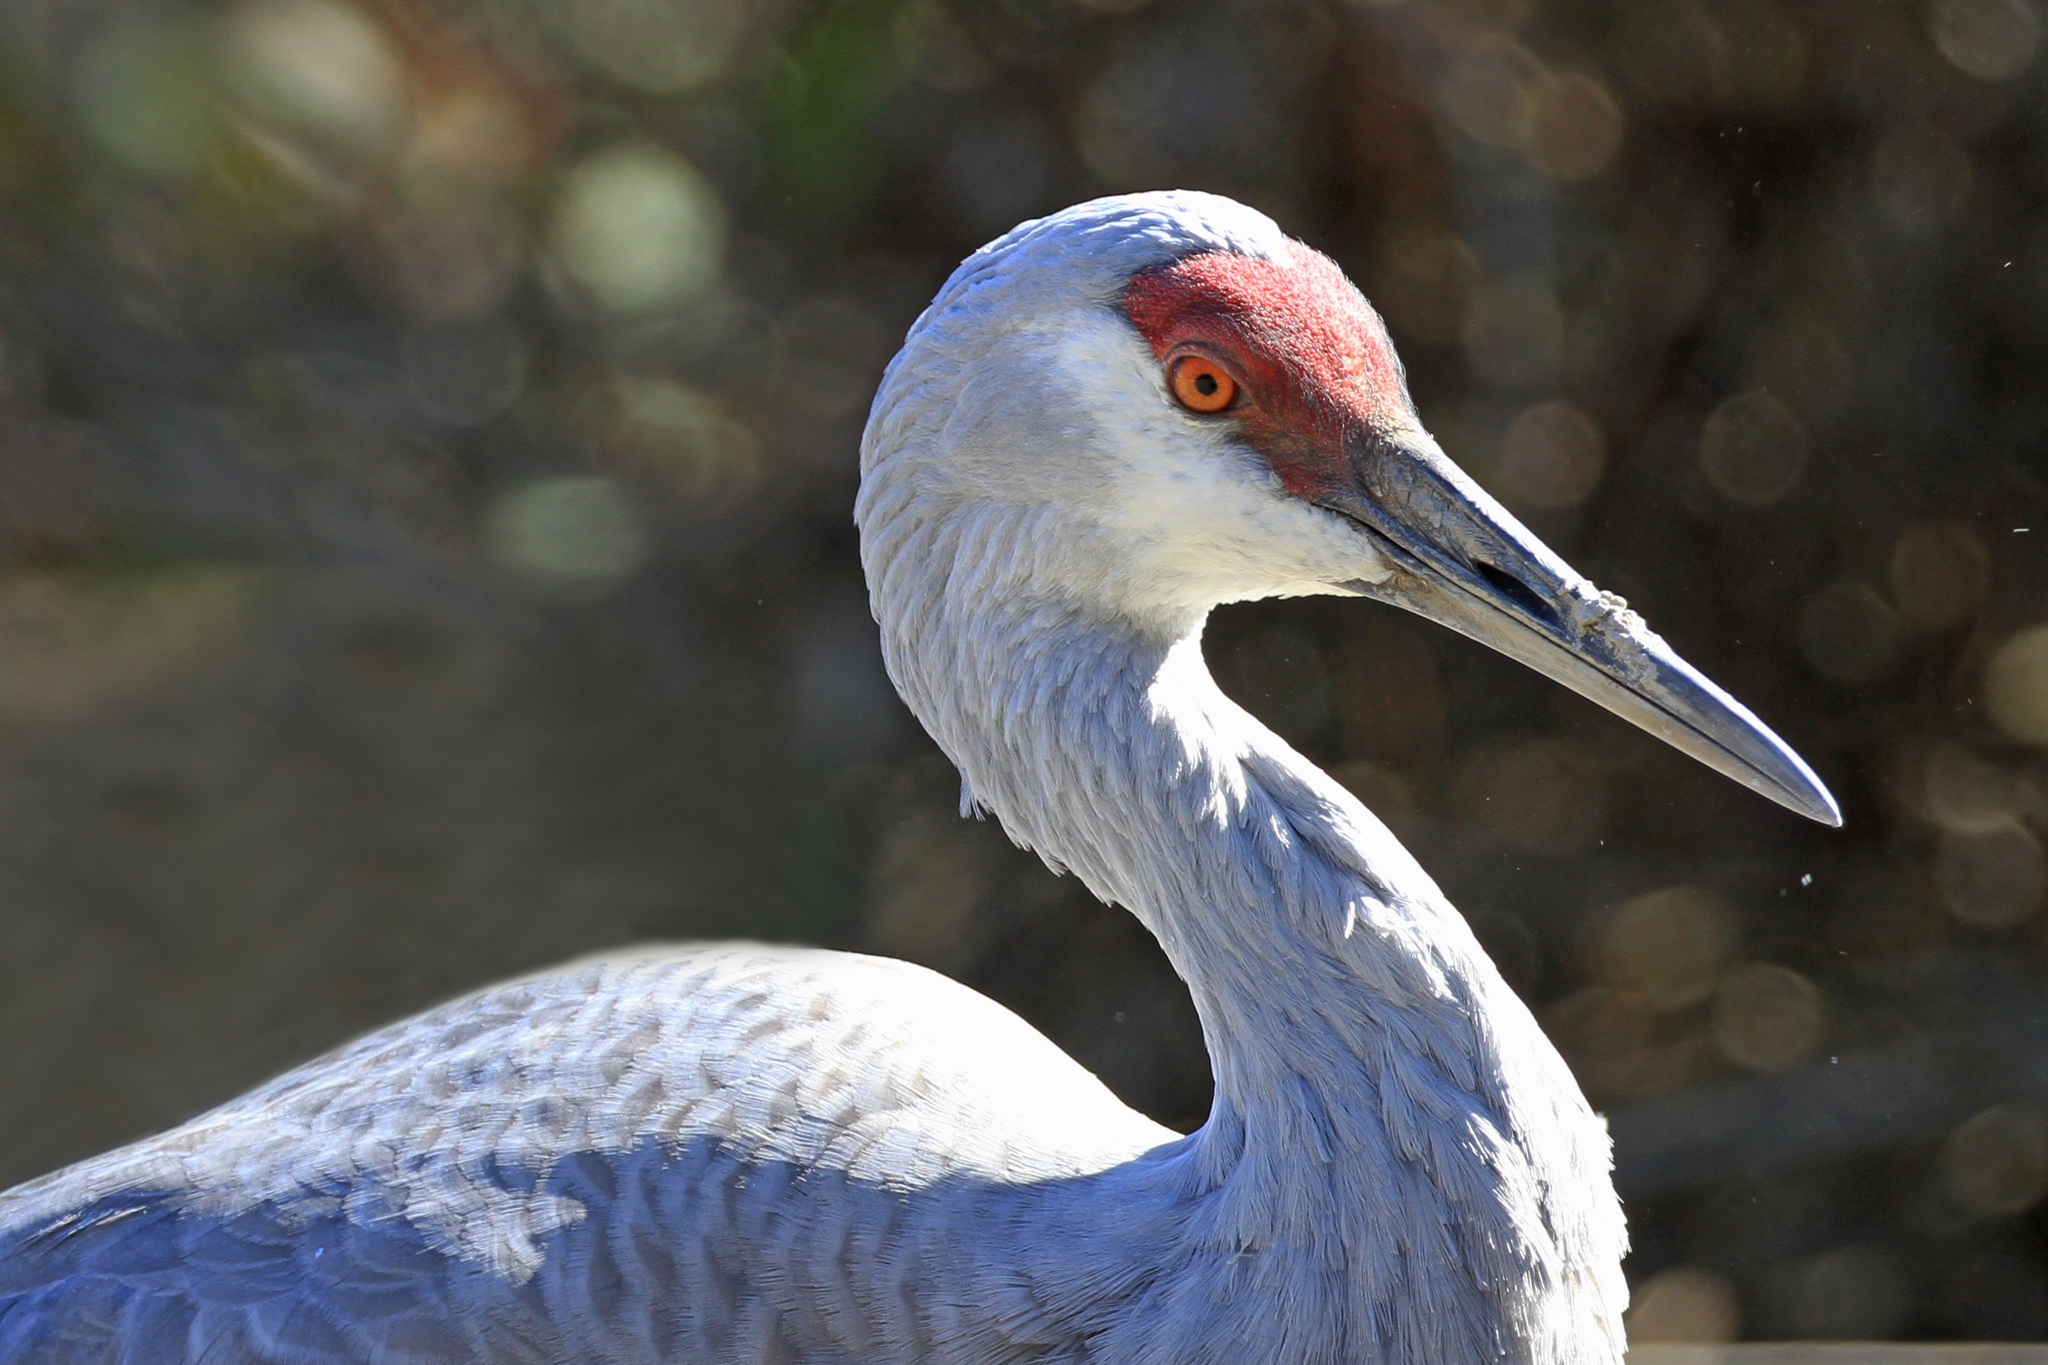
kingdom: Animalia
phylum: Chordata
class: Aves
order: Gruiformes
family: Gruidae
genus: Grus
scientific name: Grus canadensis
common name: Sandhill crane
